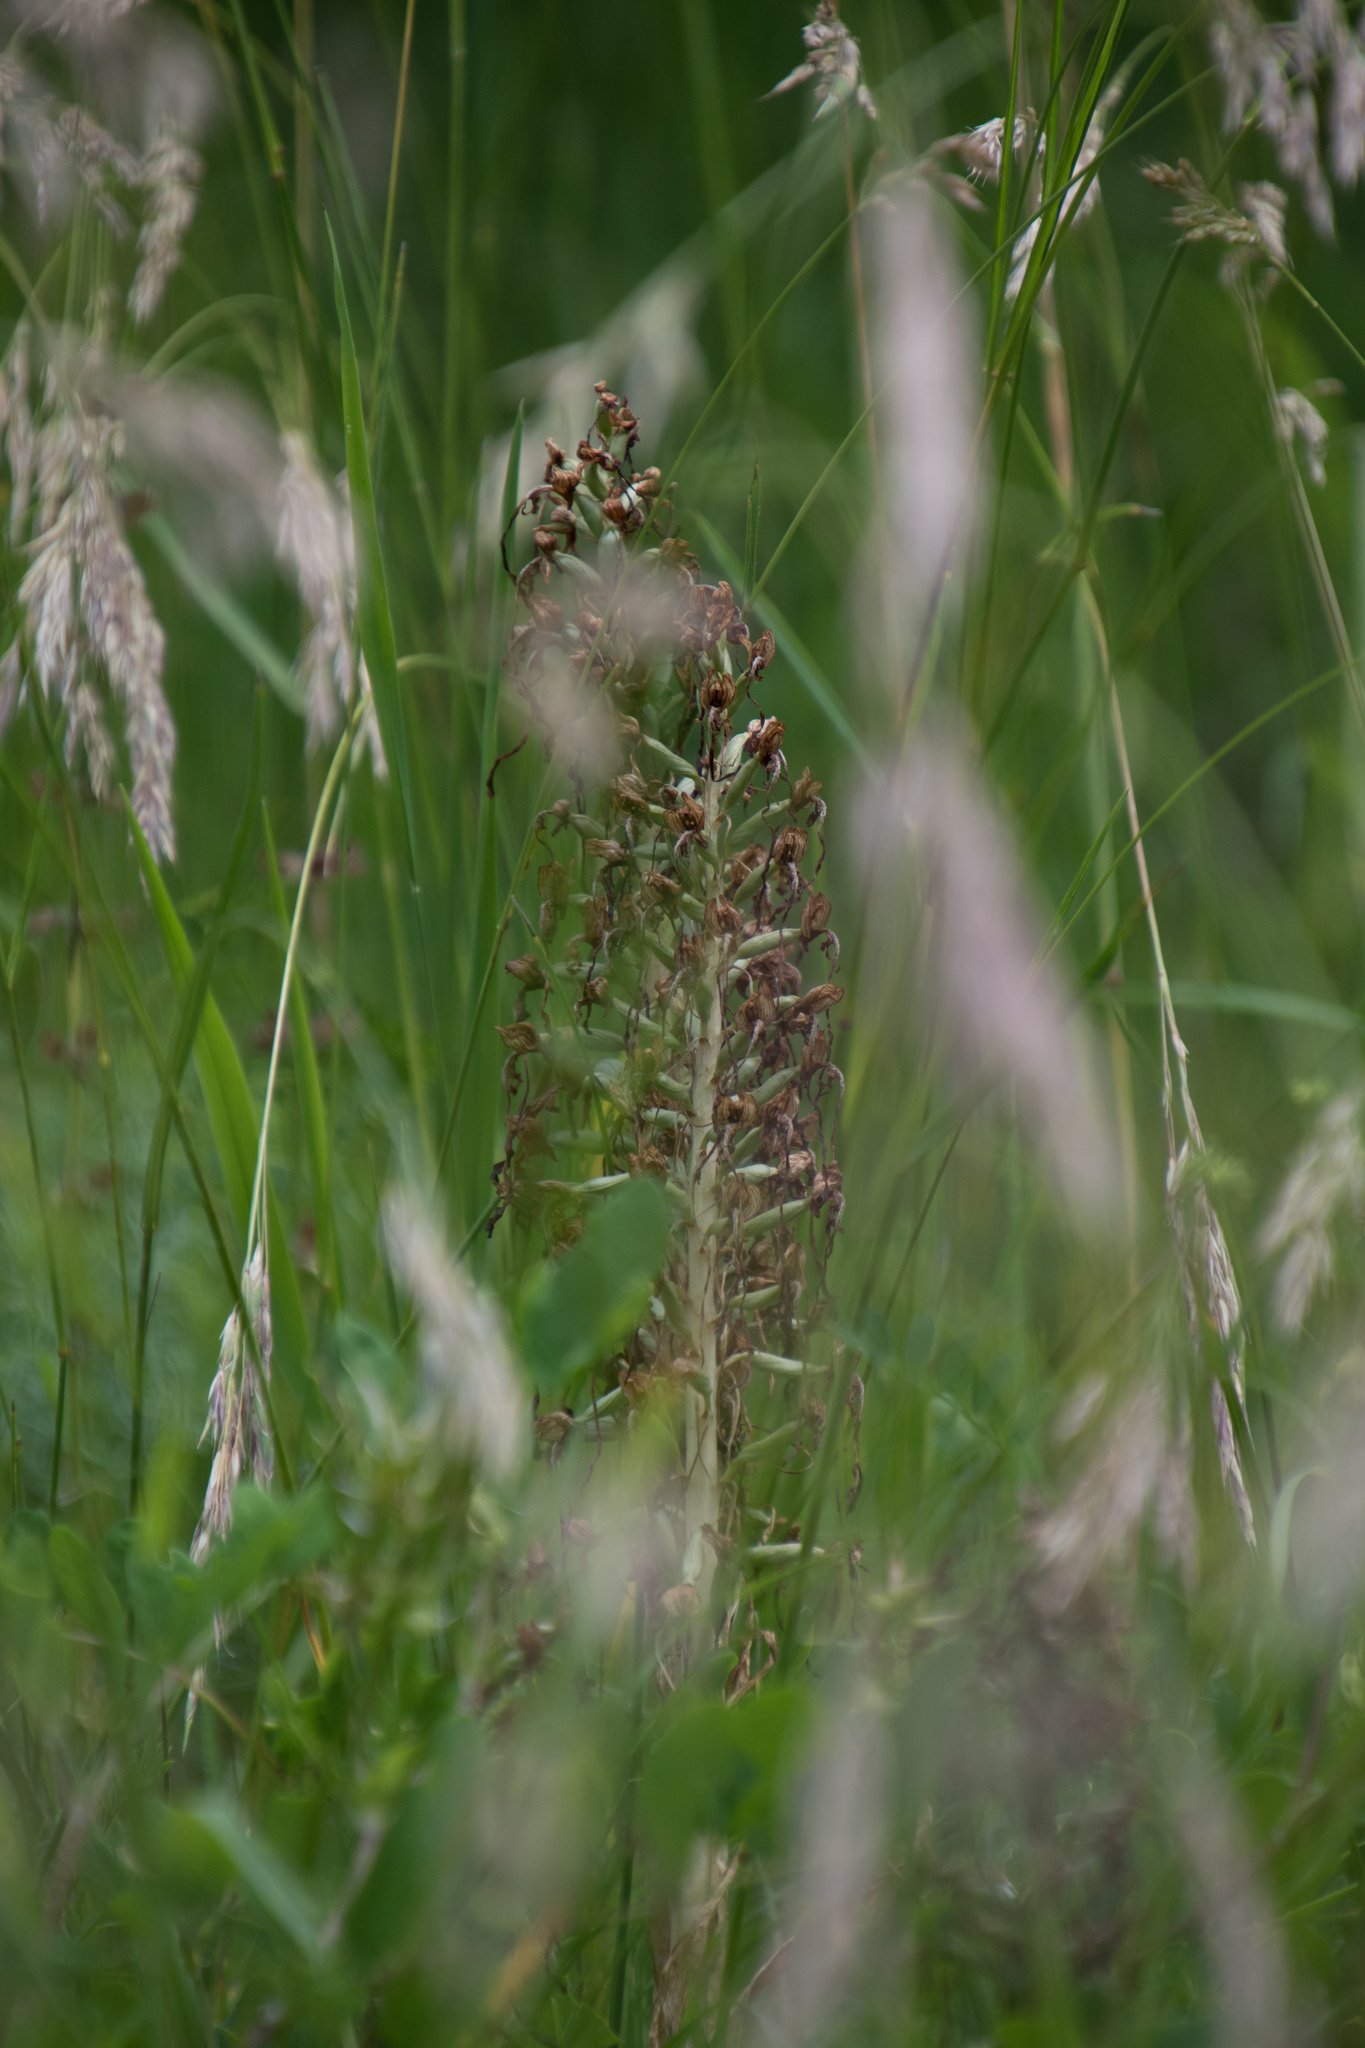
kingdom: Plantae
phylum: Tracheophyta
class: Liliopsida
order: Asparagales
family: Orchidaceae
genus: Himantoglossum
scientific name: Himantoglossum hircinum
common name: Lizard orchid
